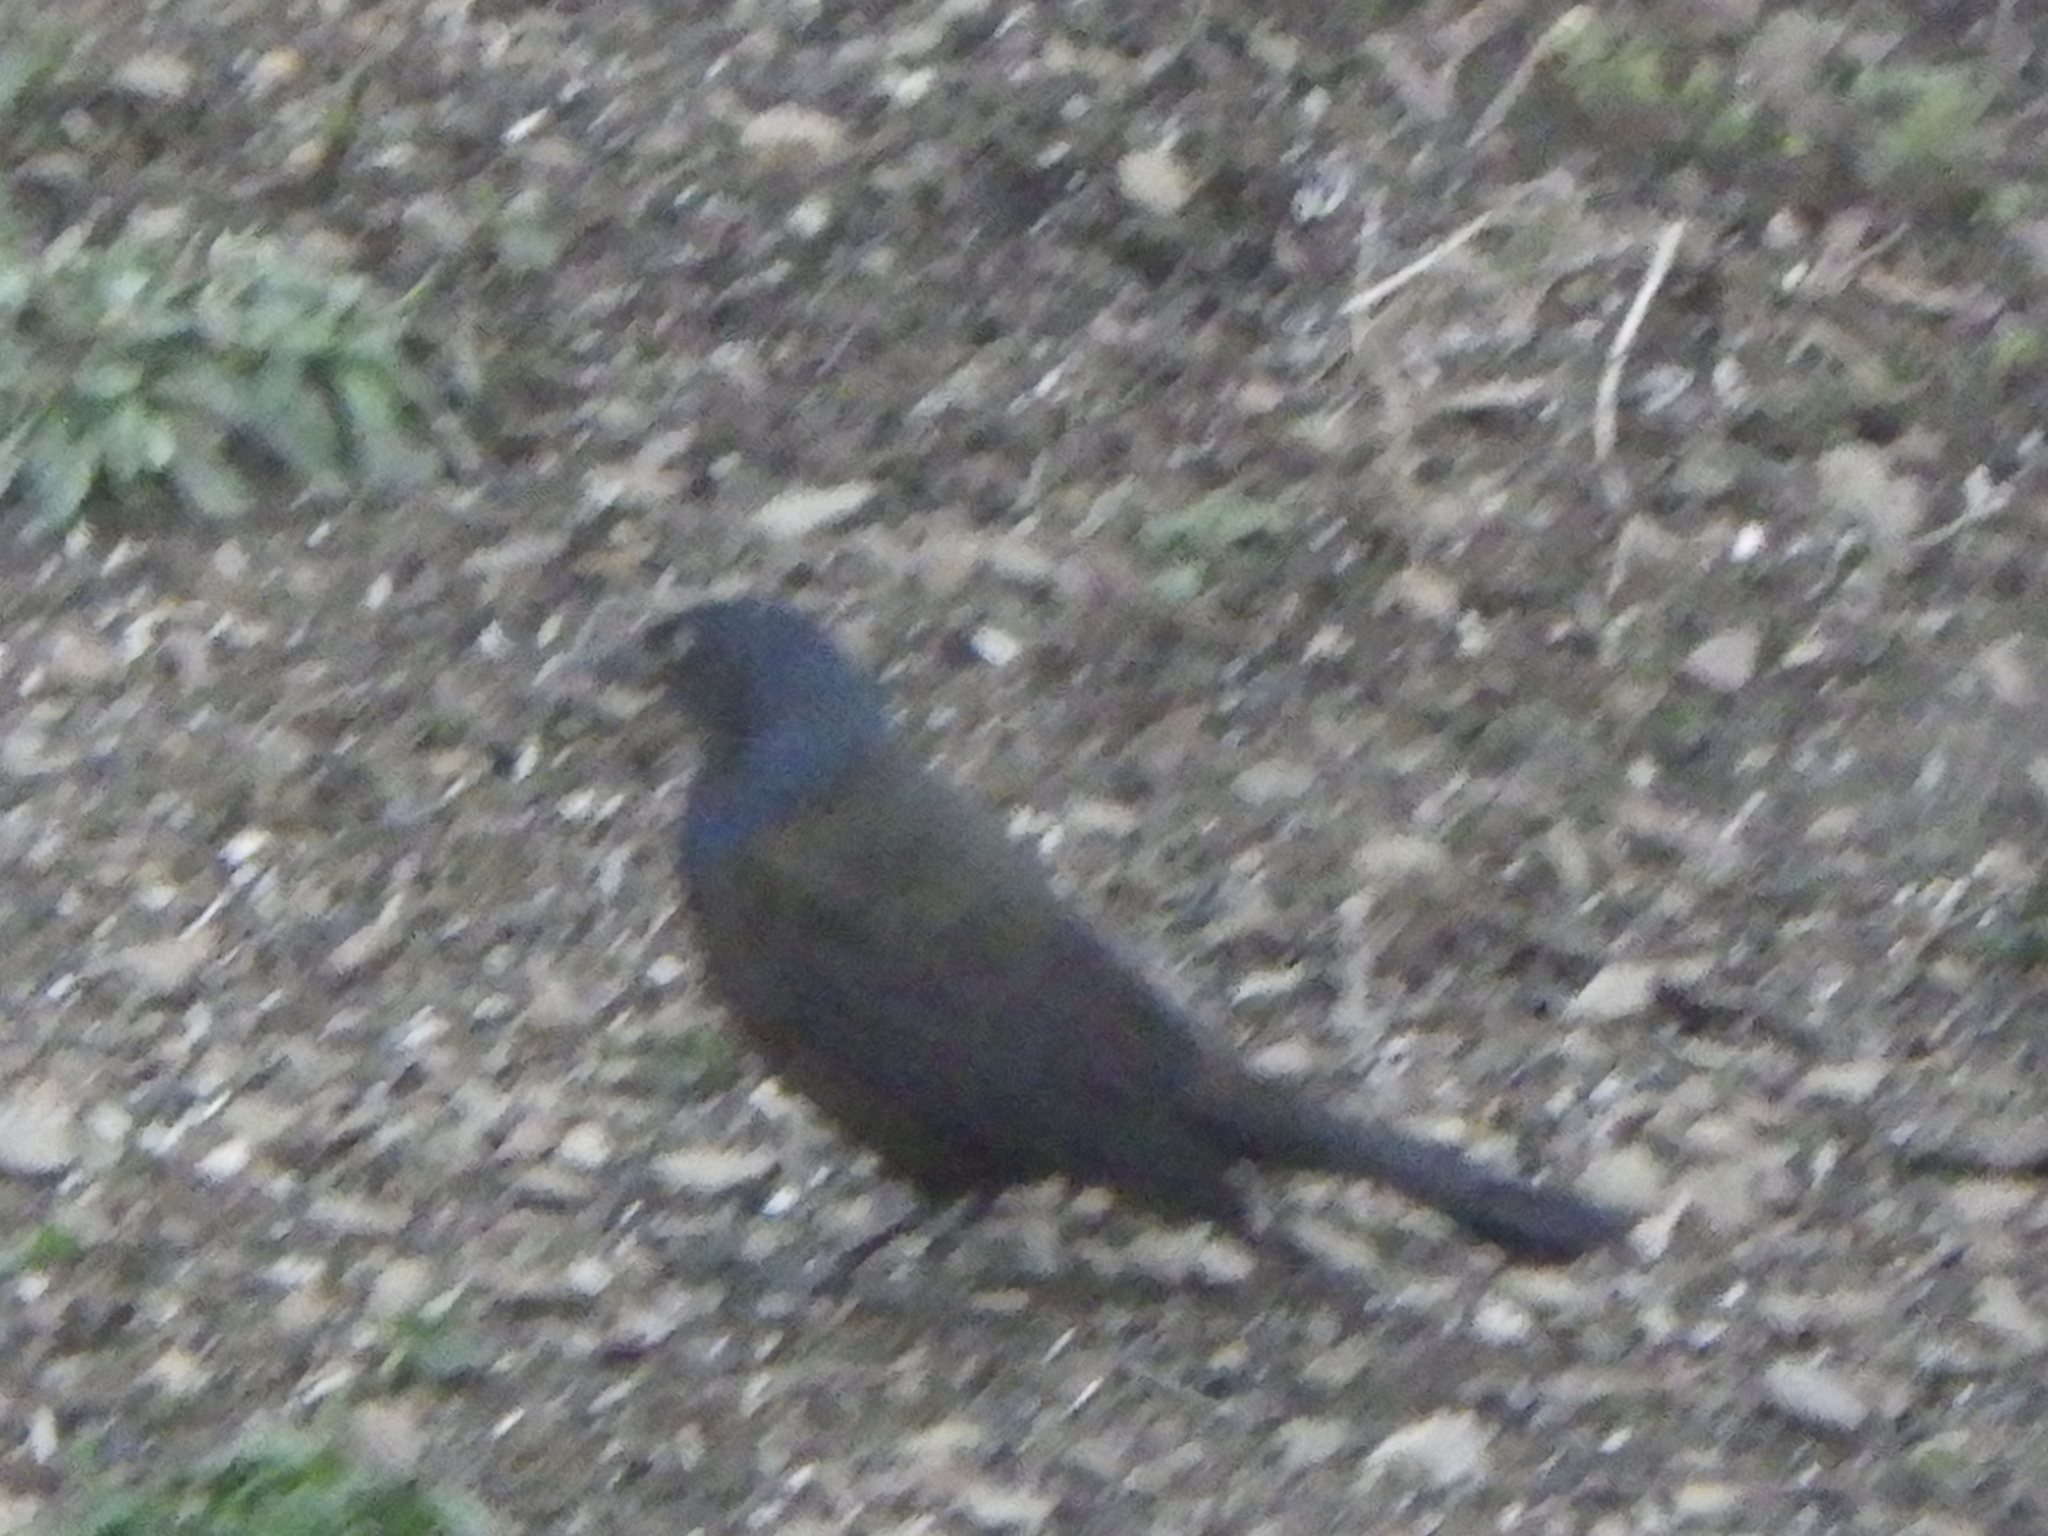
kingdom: Animalia
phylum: Chordata
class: Aves
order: Passeriformes
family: Icteridae
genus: Quiscalus
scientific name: Quiscalus quiscula
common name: Common grackle
